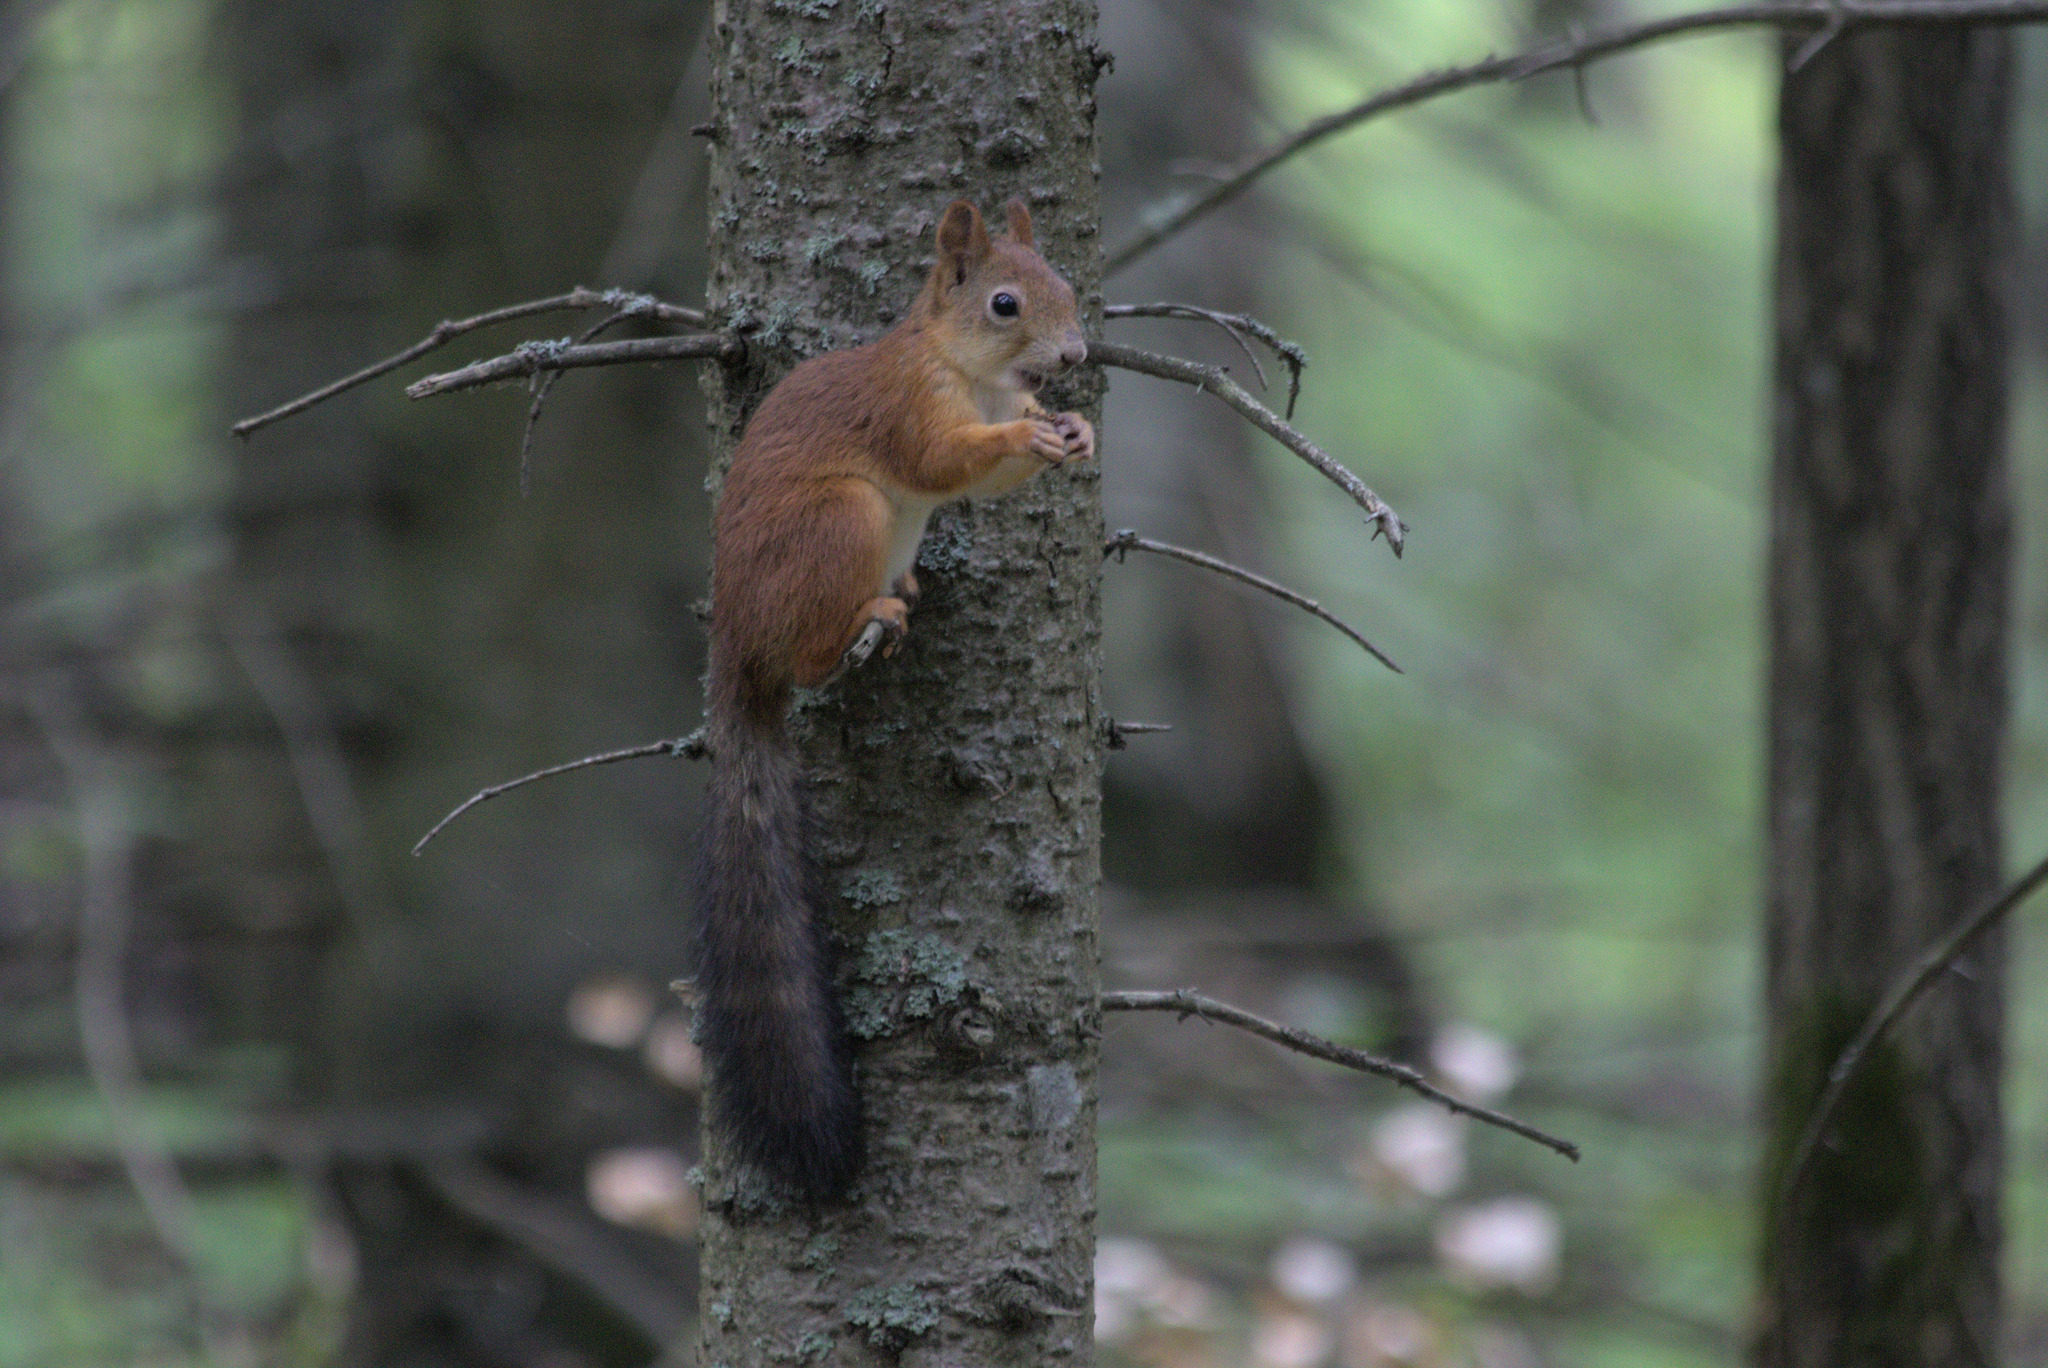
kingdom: Animalia
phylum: Chordata
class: Mammalia
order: Rodentia
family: Sciuridae
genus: Sciurus
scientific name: Sciurus vulgaris
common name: Eurasian red squirrel
